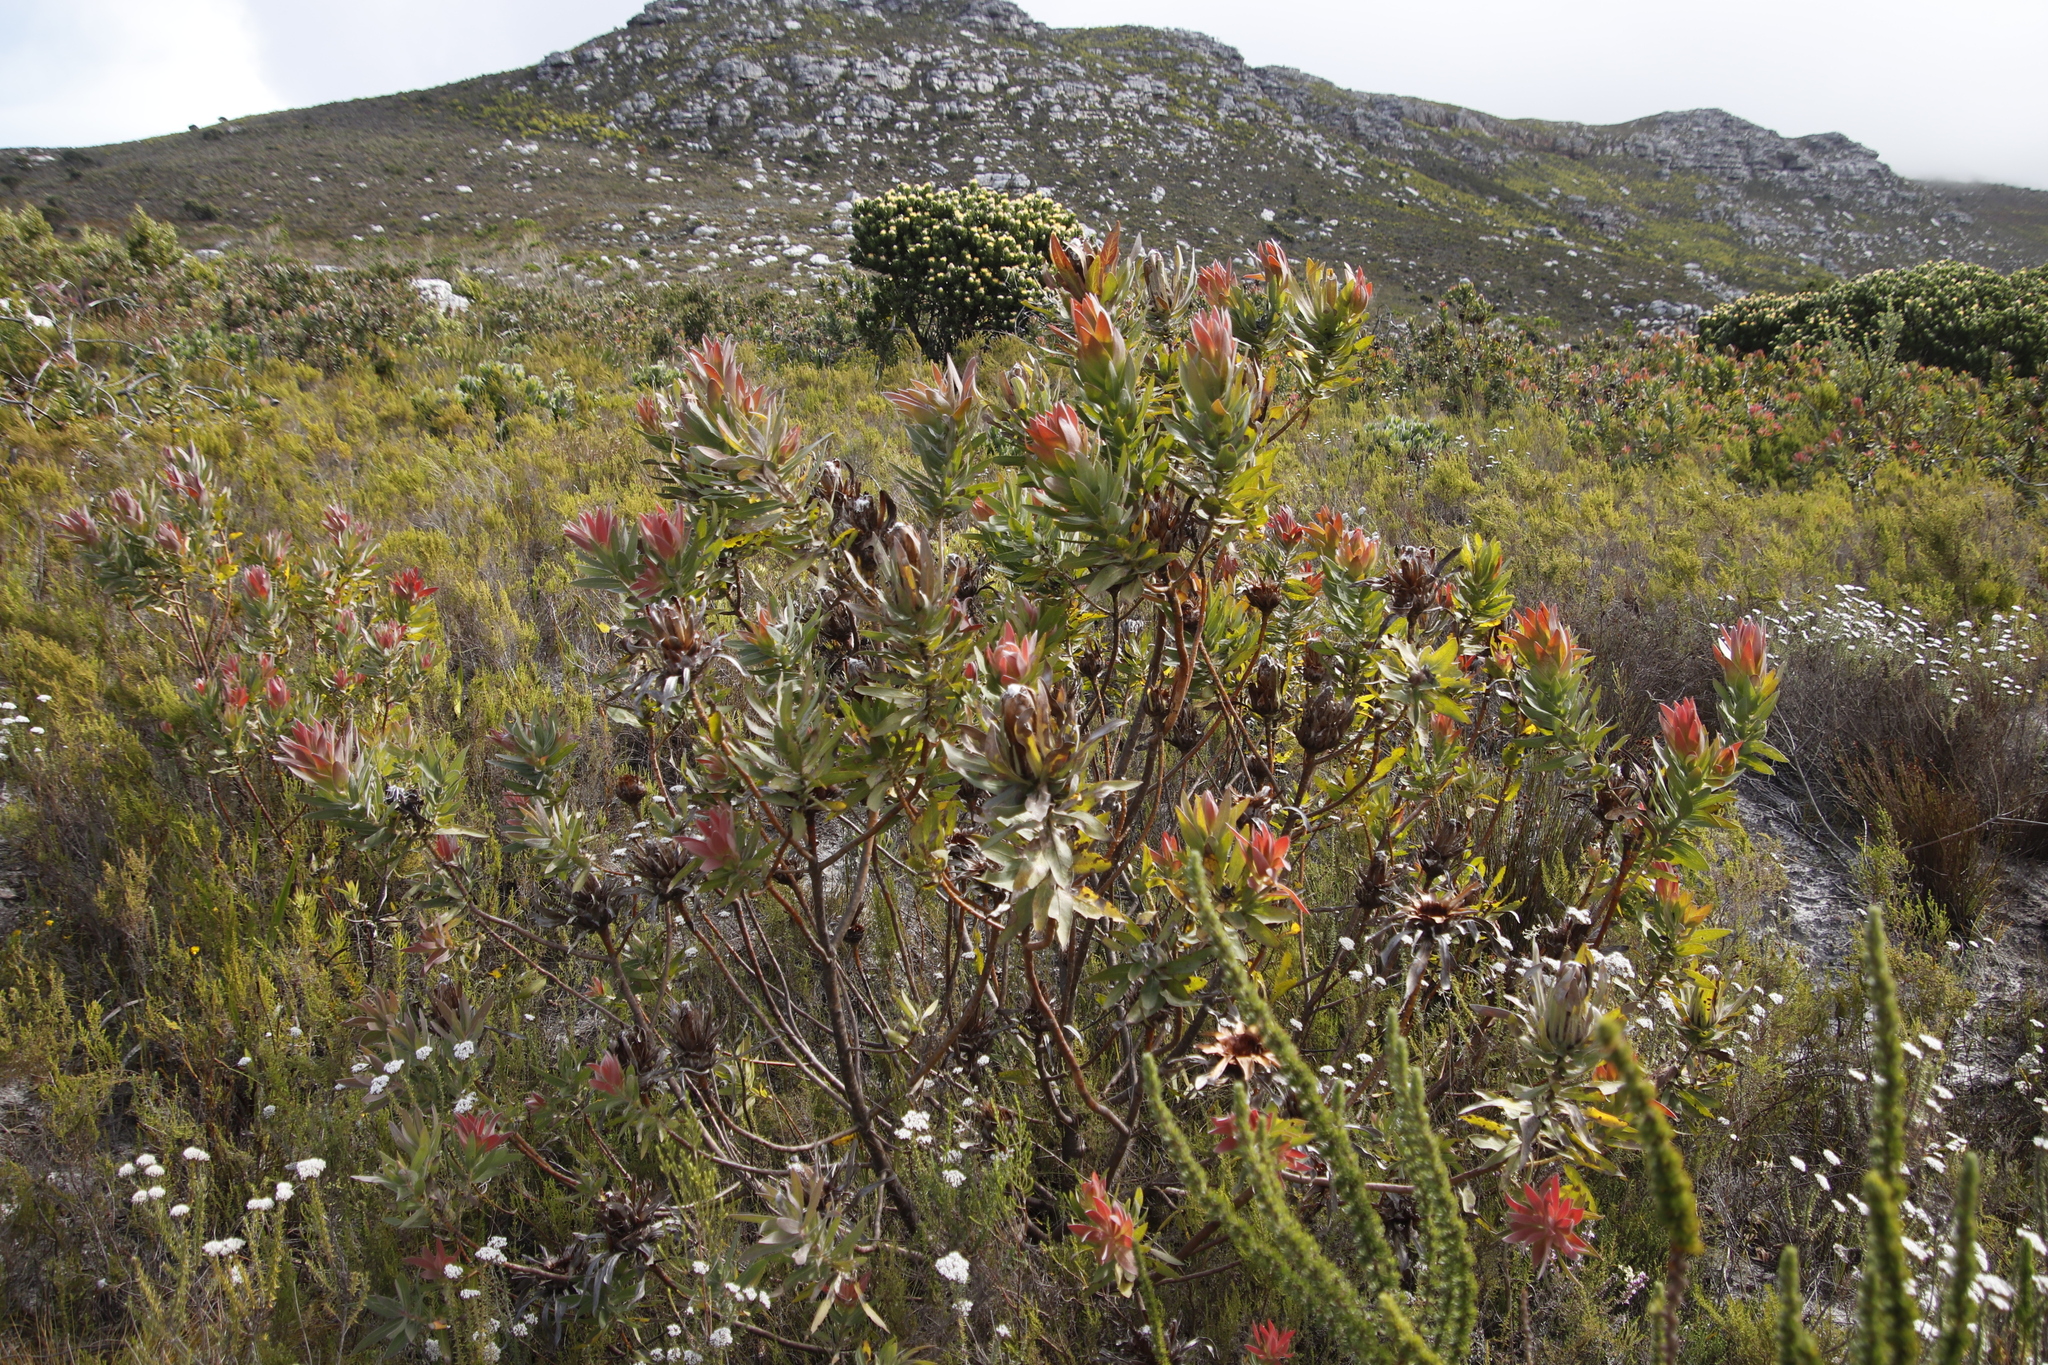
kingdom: Plantae
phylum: Tracheophyta
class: Magnoliopsida
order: Proteales
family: Proteaceae
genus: Protea
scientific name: Protea coronata
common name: Green sugarbush
